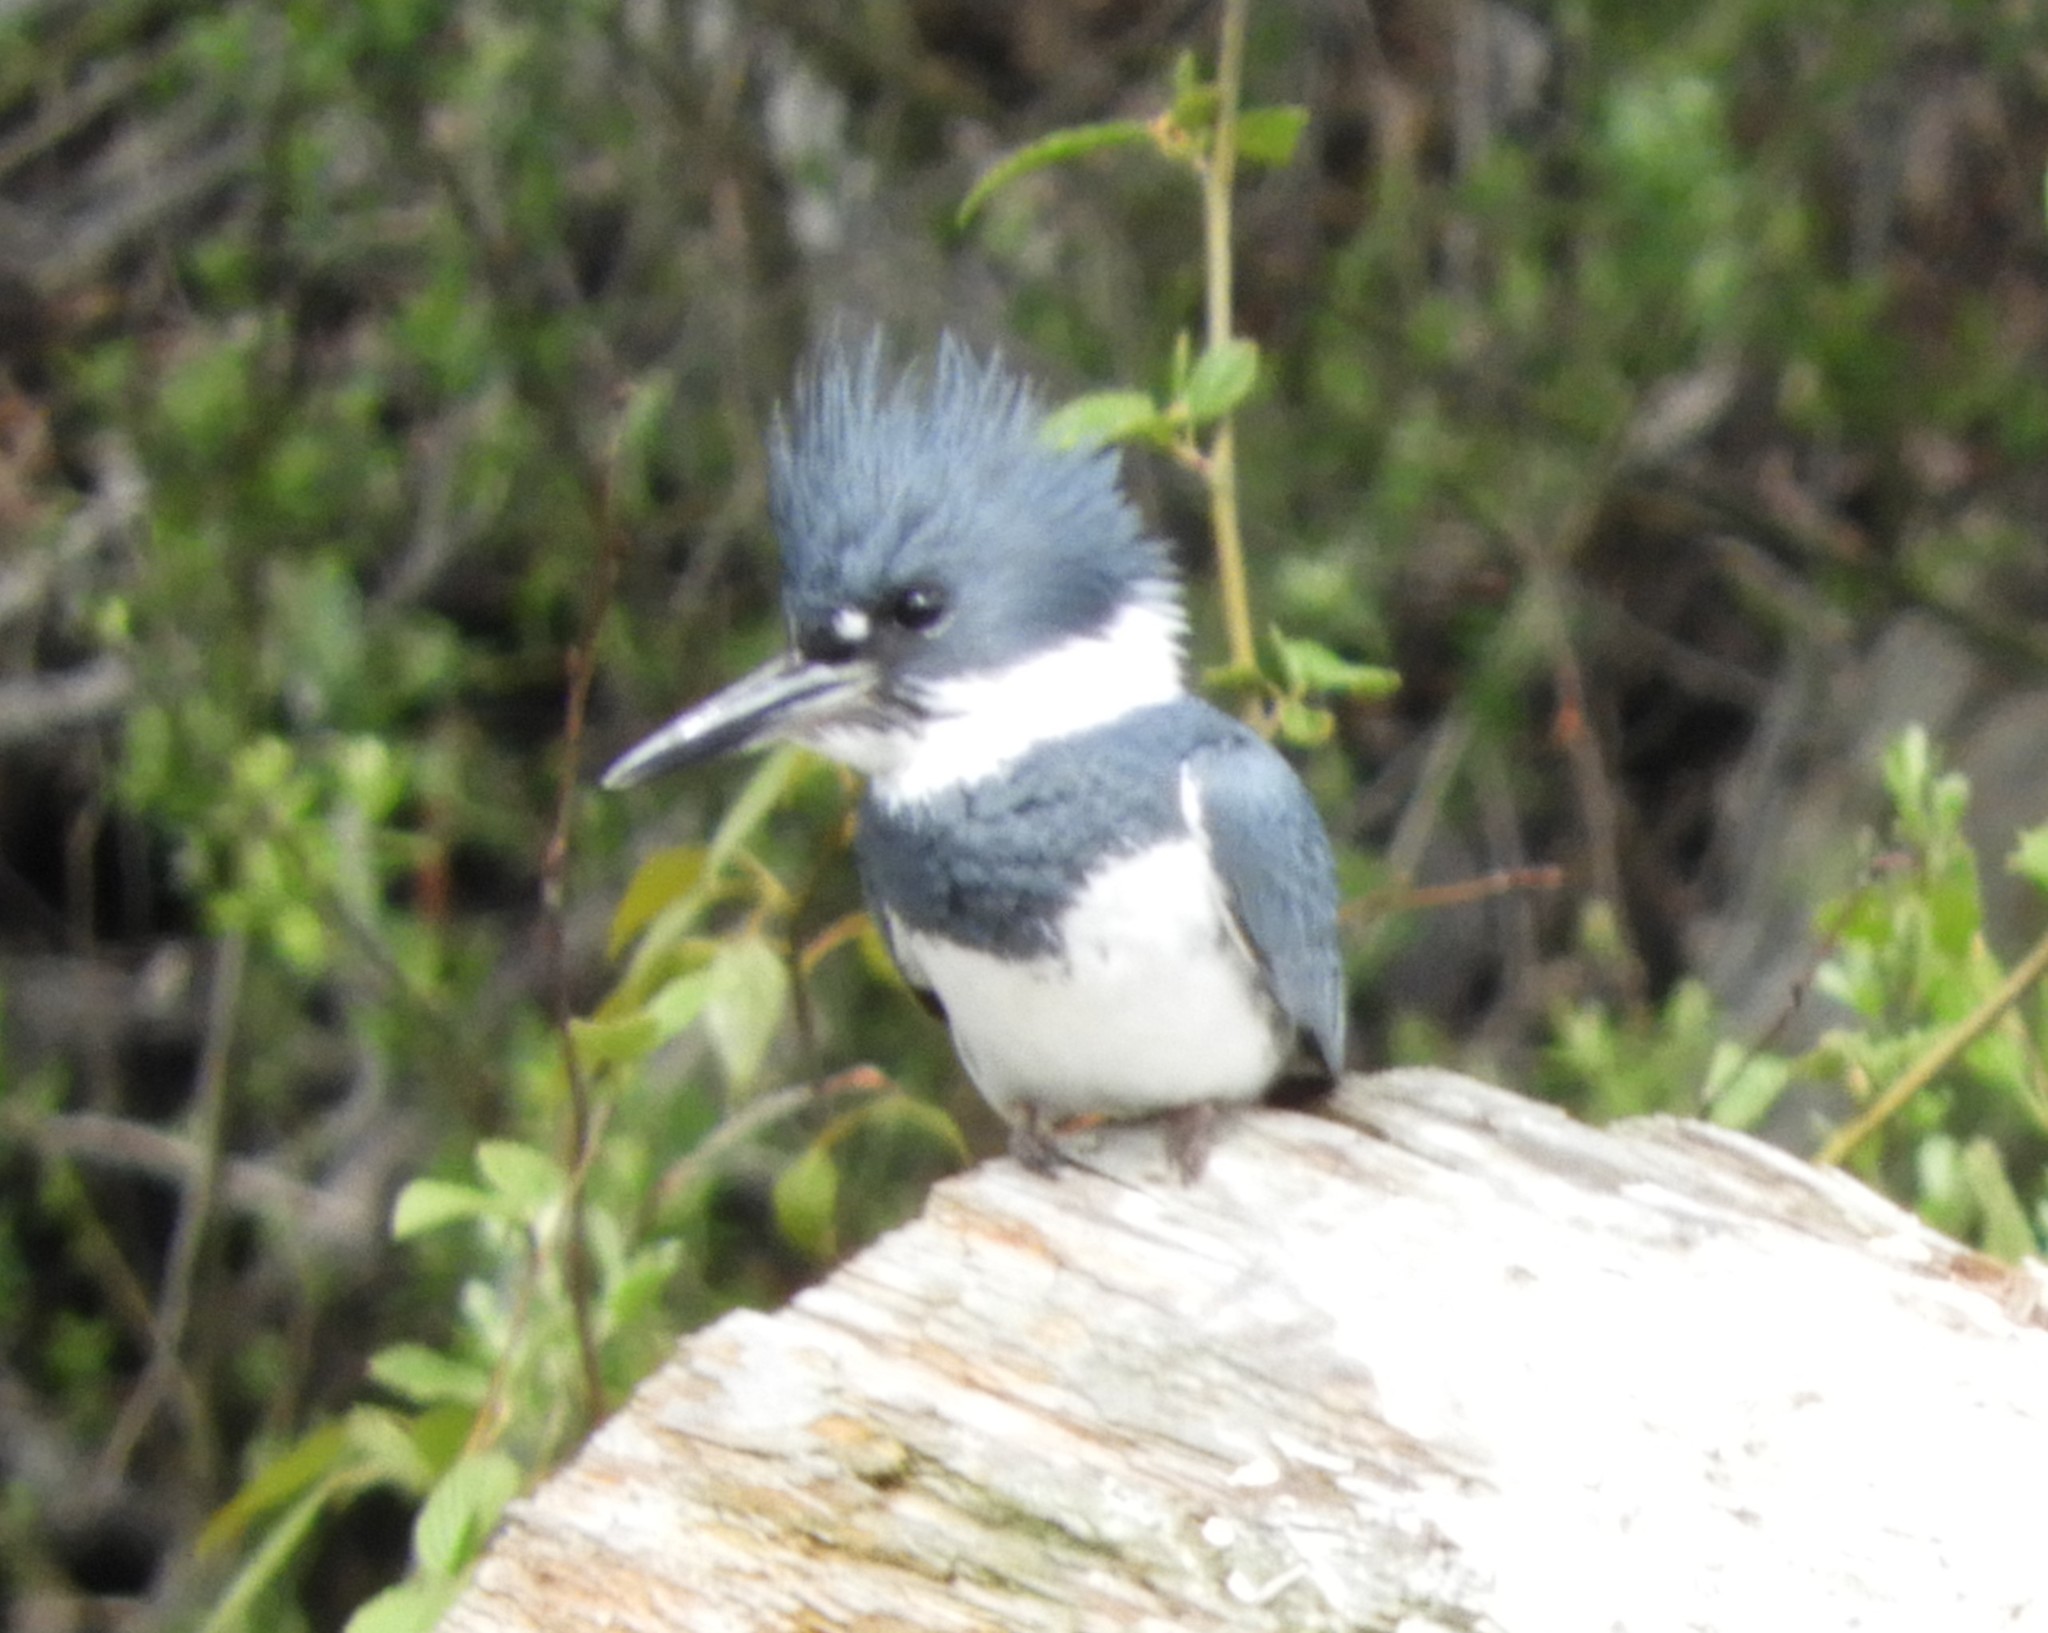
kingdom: Animalia
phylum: Chordata
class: Aves
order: Coraciiformes
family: Alcedinidae
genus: Megaceryle
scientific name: Megaceryle alcyon
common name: Belted kingfisher
